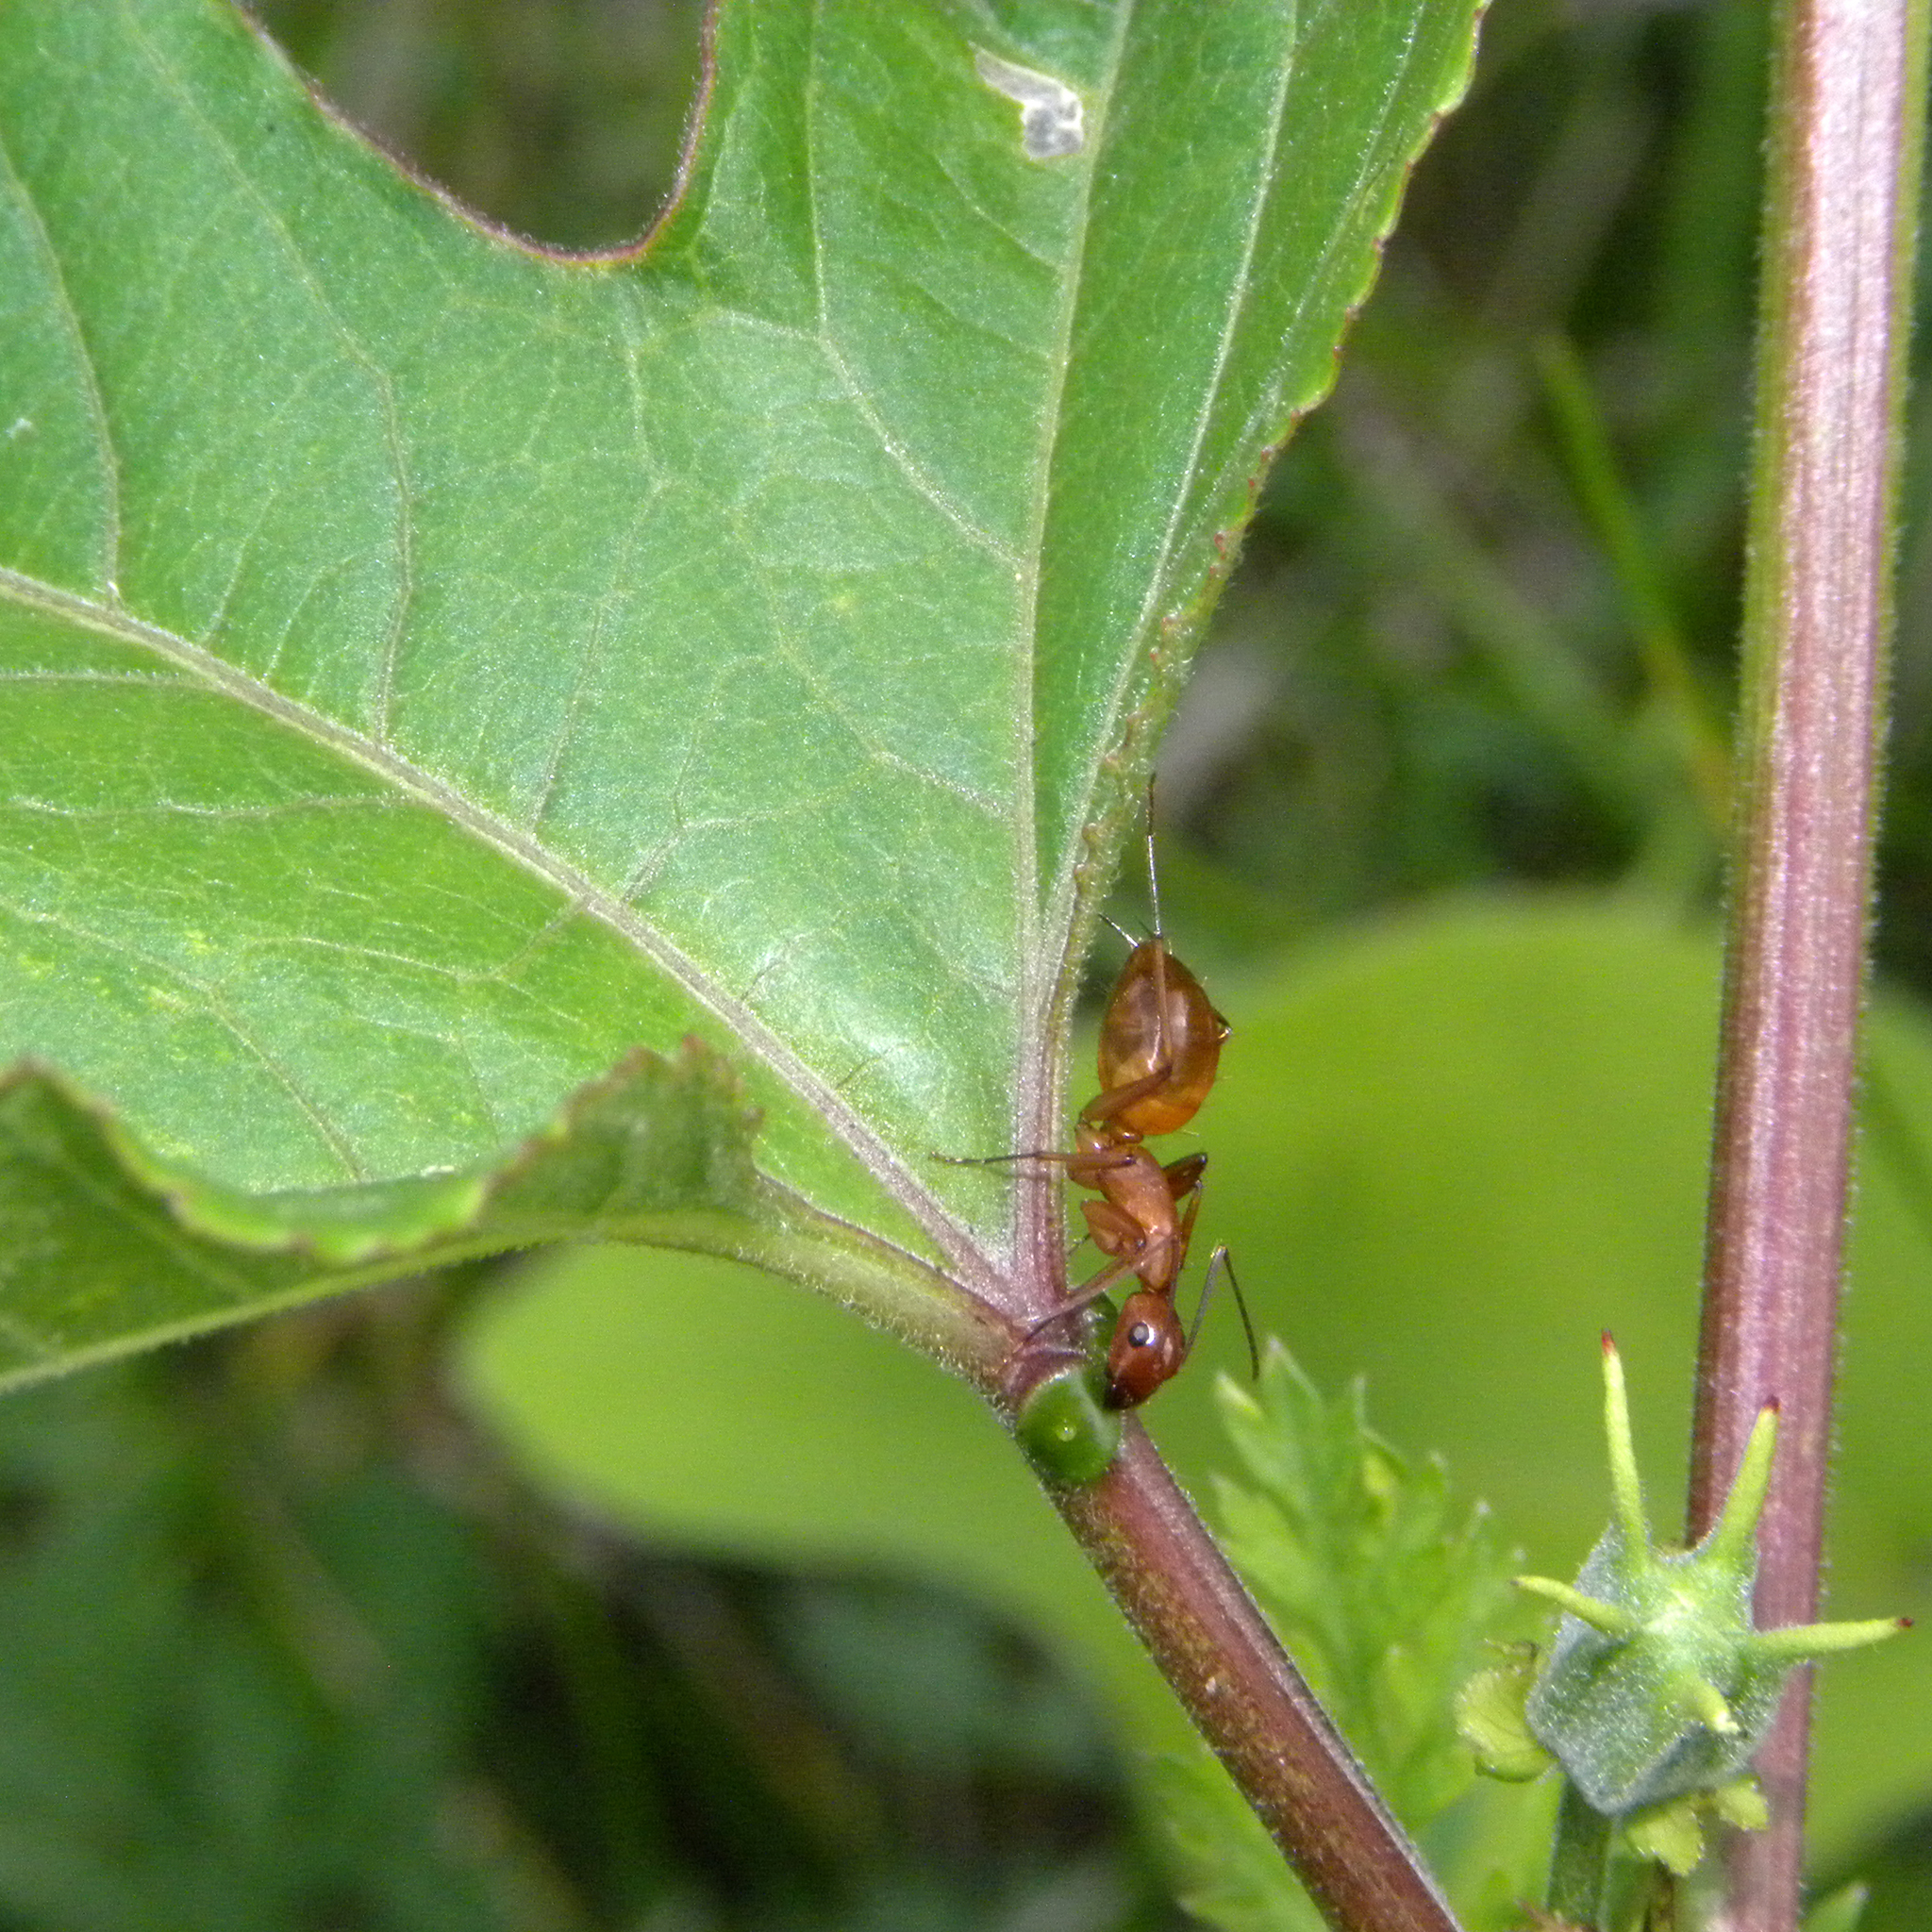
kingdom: Animalia
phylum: Arthropoda
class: Insecta
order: Hymenoptera
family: Formicidae
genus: Camponotus
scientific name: Camponotus castaneus
